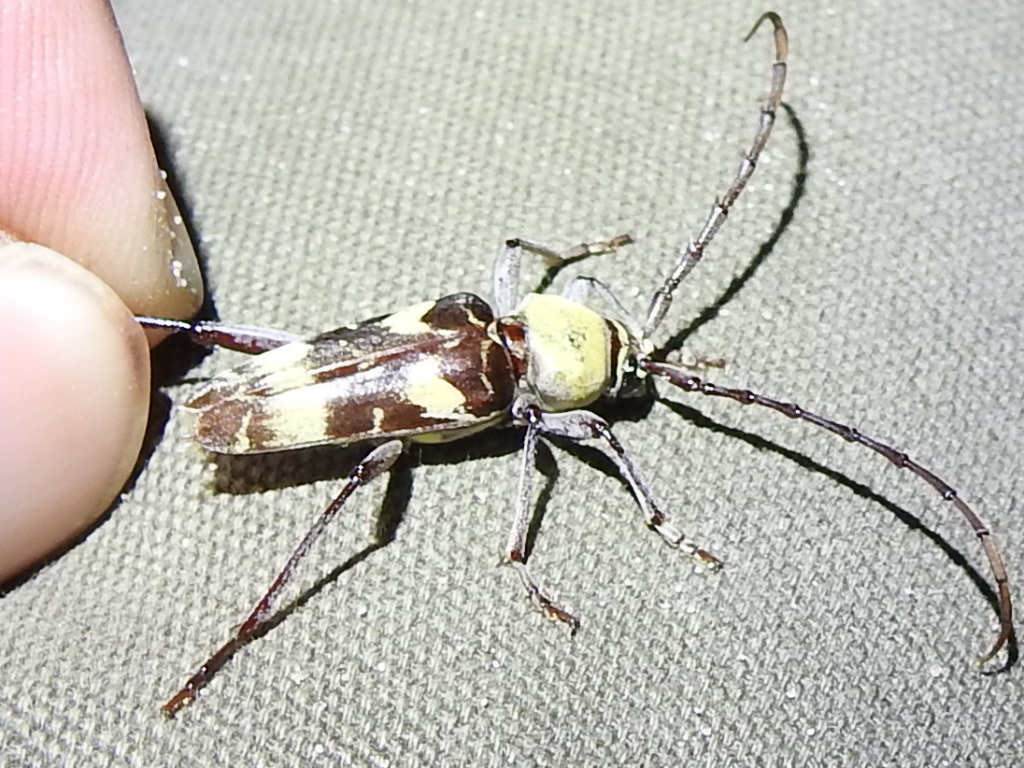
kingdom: Animalia
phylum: Arthropoda
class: Insecta
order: Coleoptera
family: Cerambycidae
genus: Megacyllene
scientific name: Megacyllene antennata
